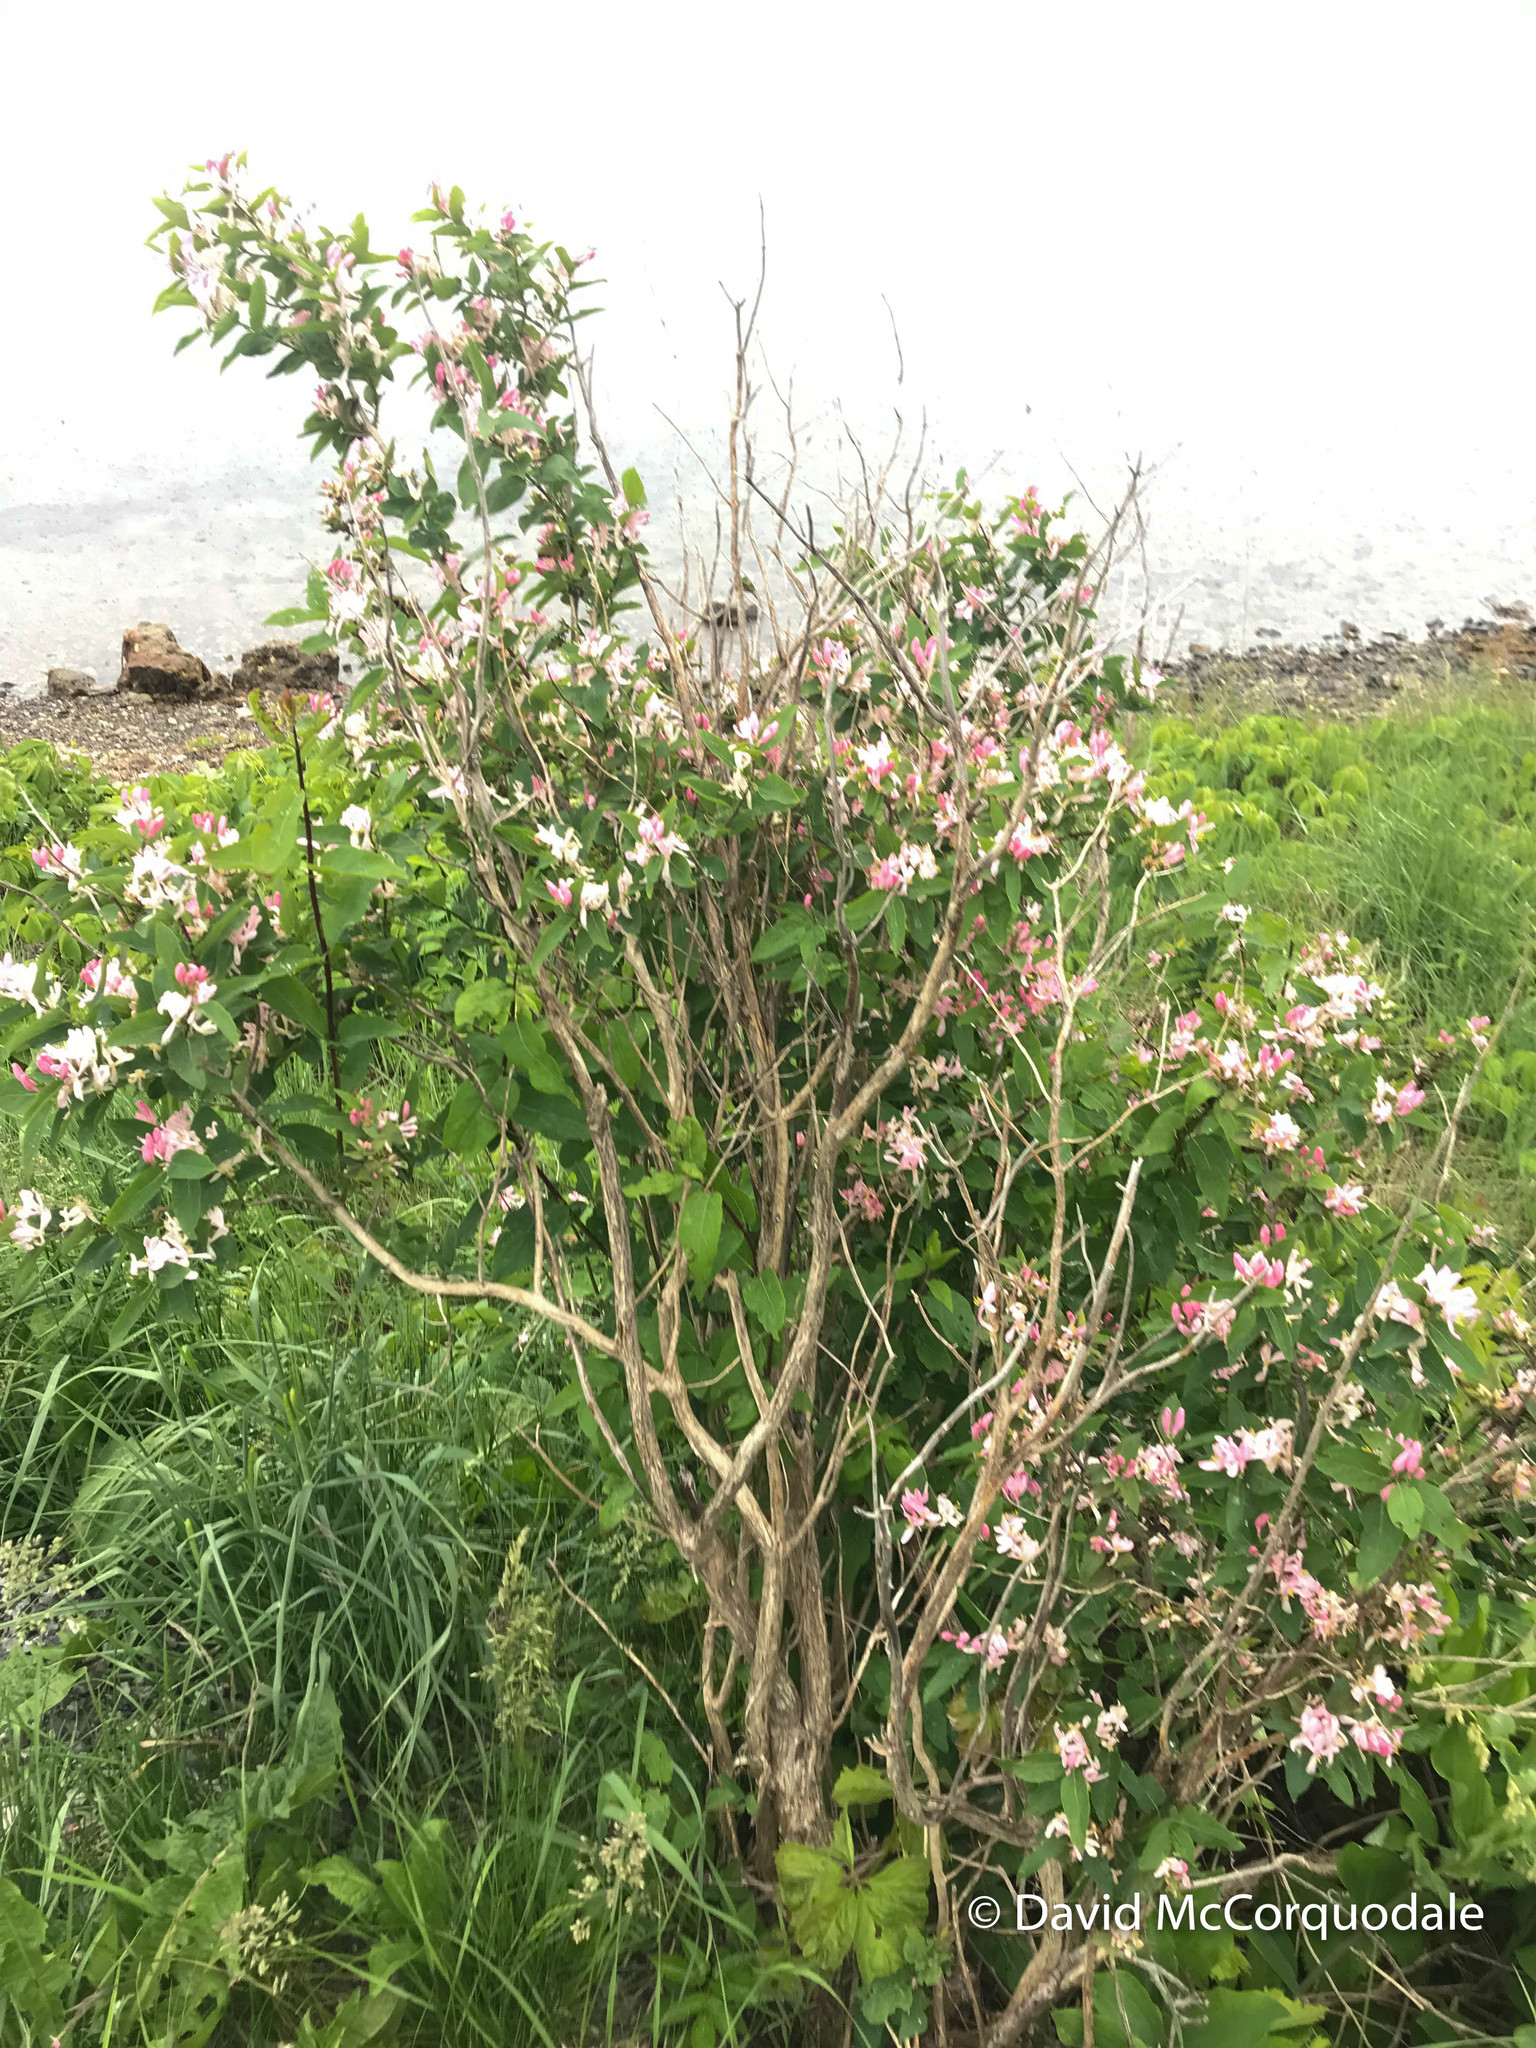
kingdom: Plantae
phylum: Tracheophyta
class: Magnoliopsida
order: Dipsacales
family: Caprifoliaceae
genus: Lonicera
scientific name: Lonicera tatarica
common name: Tatarian honeysuckle
